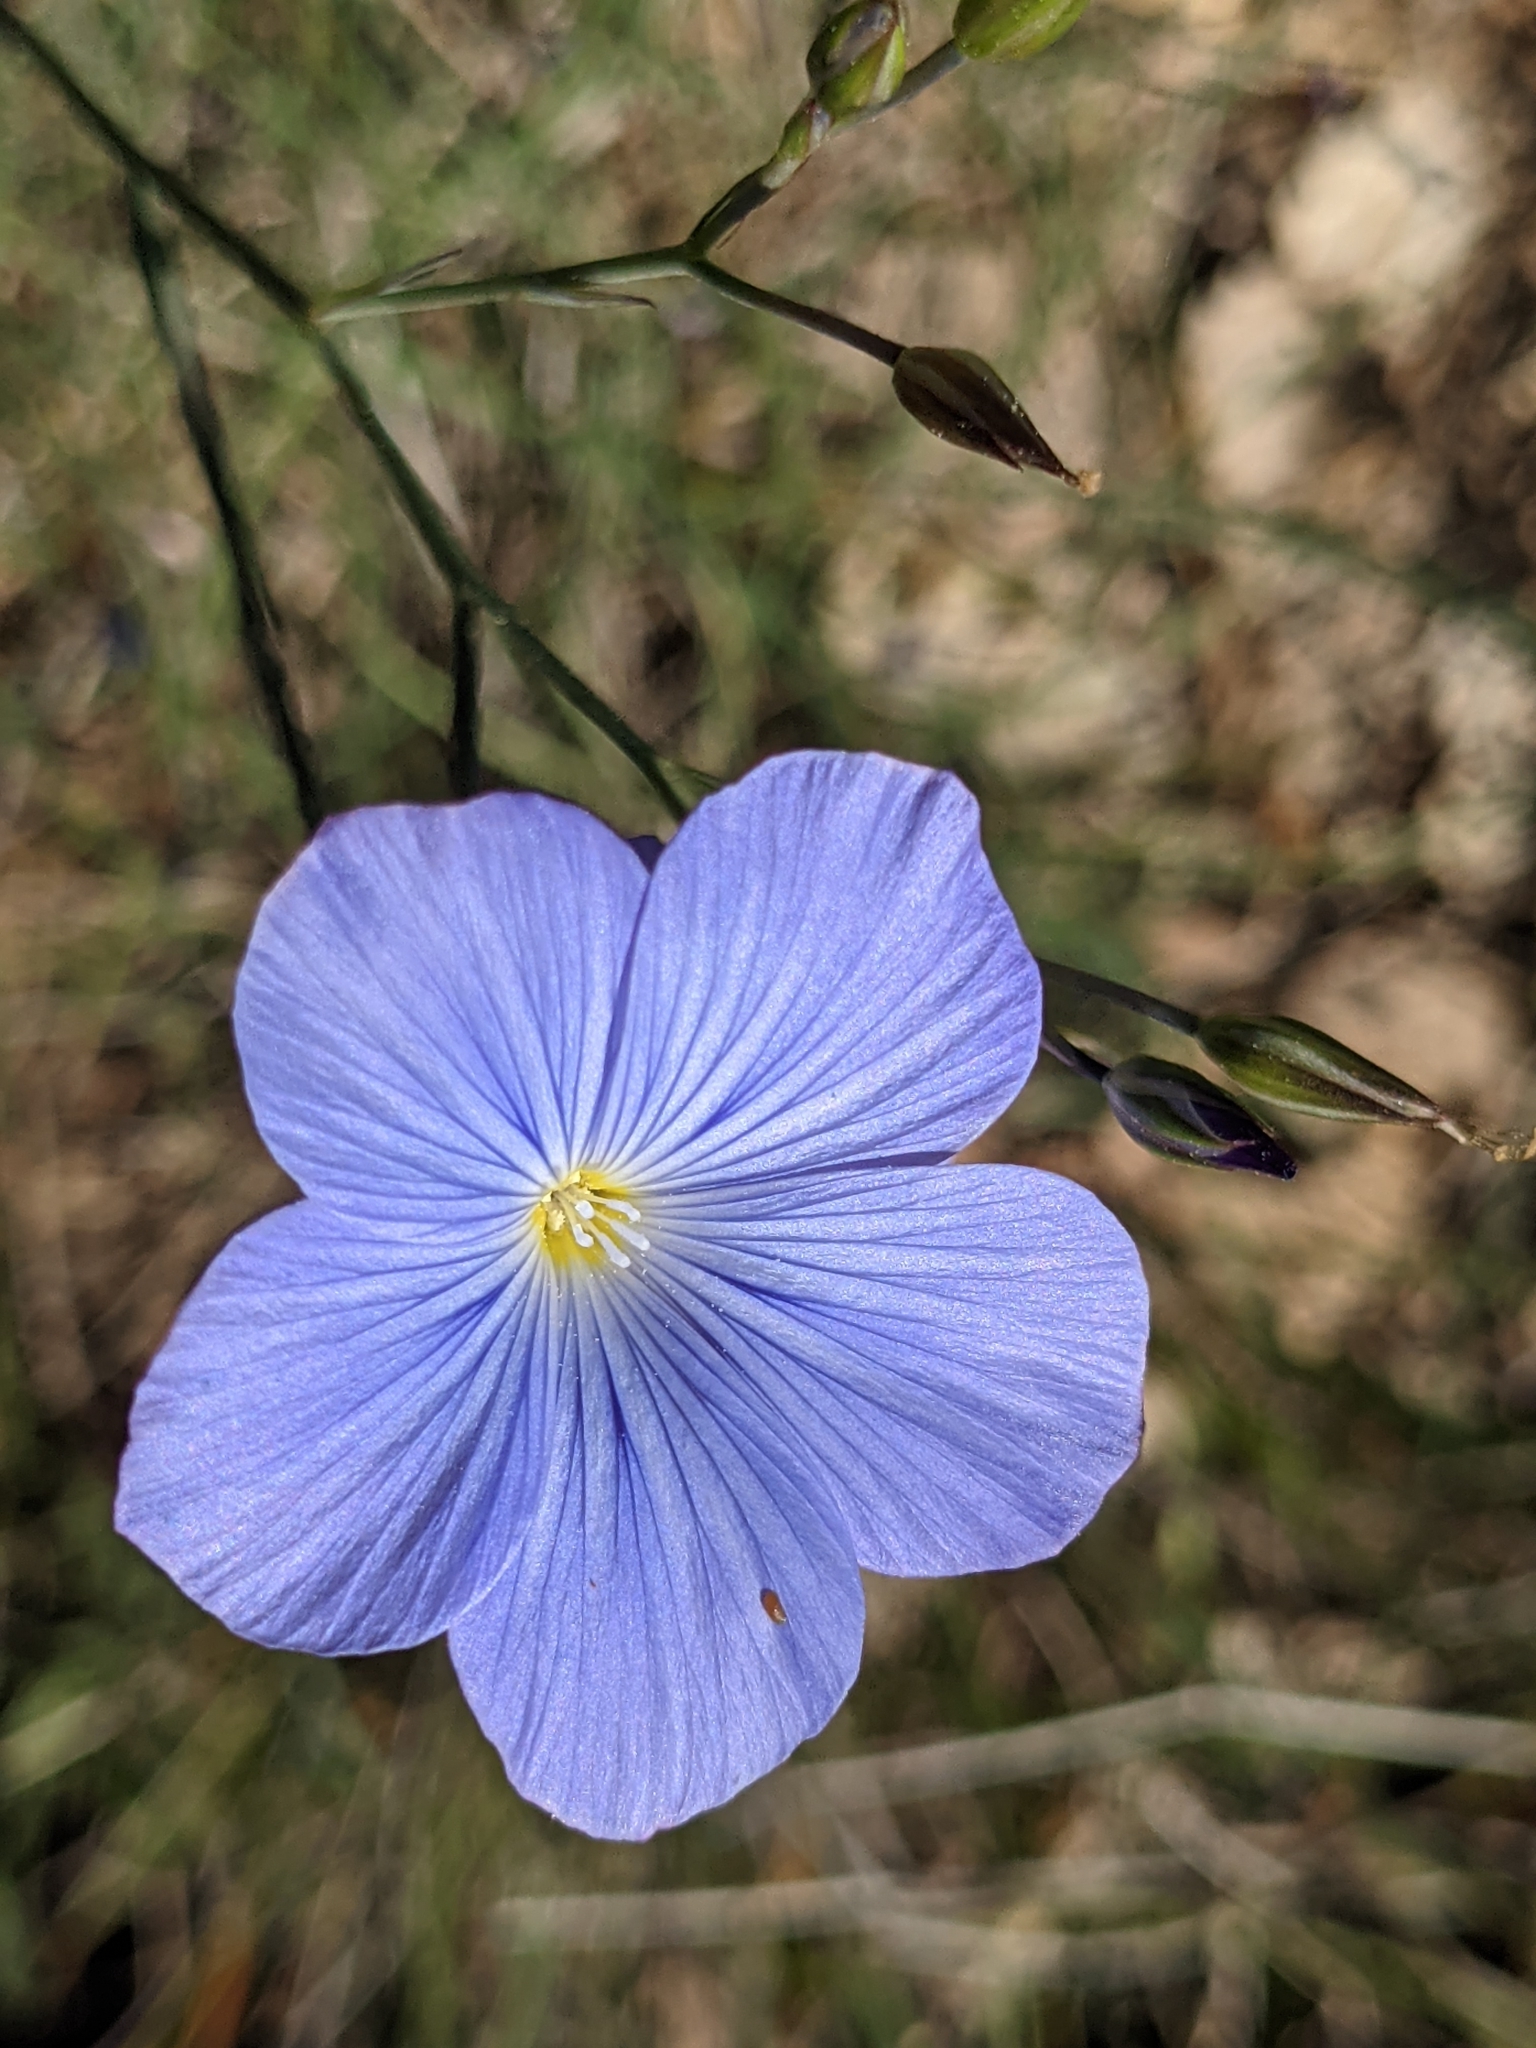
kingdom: Plantae
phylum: Tracheophyta
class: Magnoliopsida
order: Malpighiales
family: Linaceae
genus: Linum
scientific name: Linum narbonense
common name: Flax
